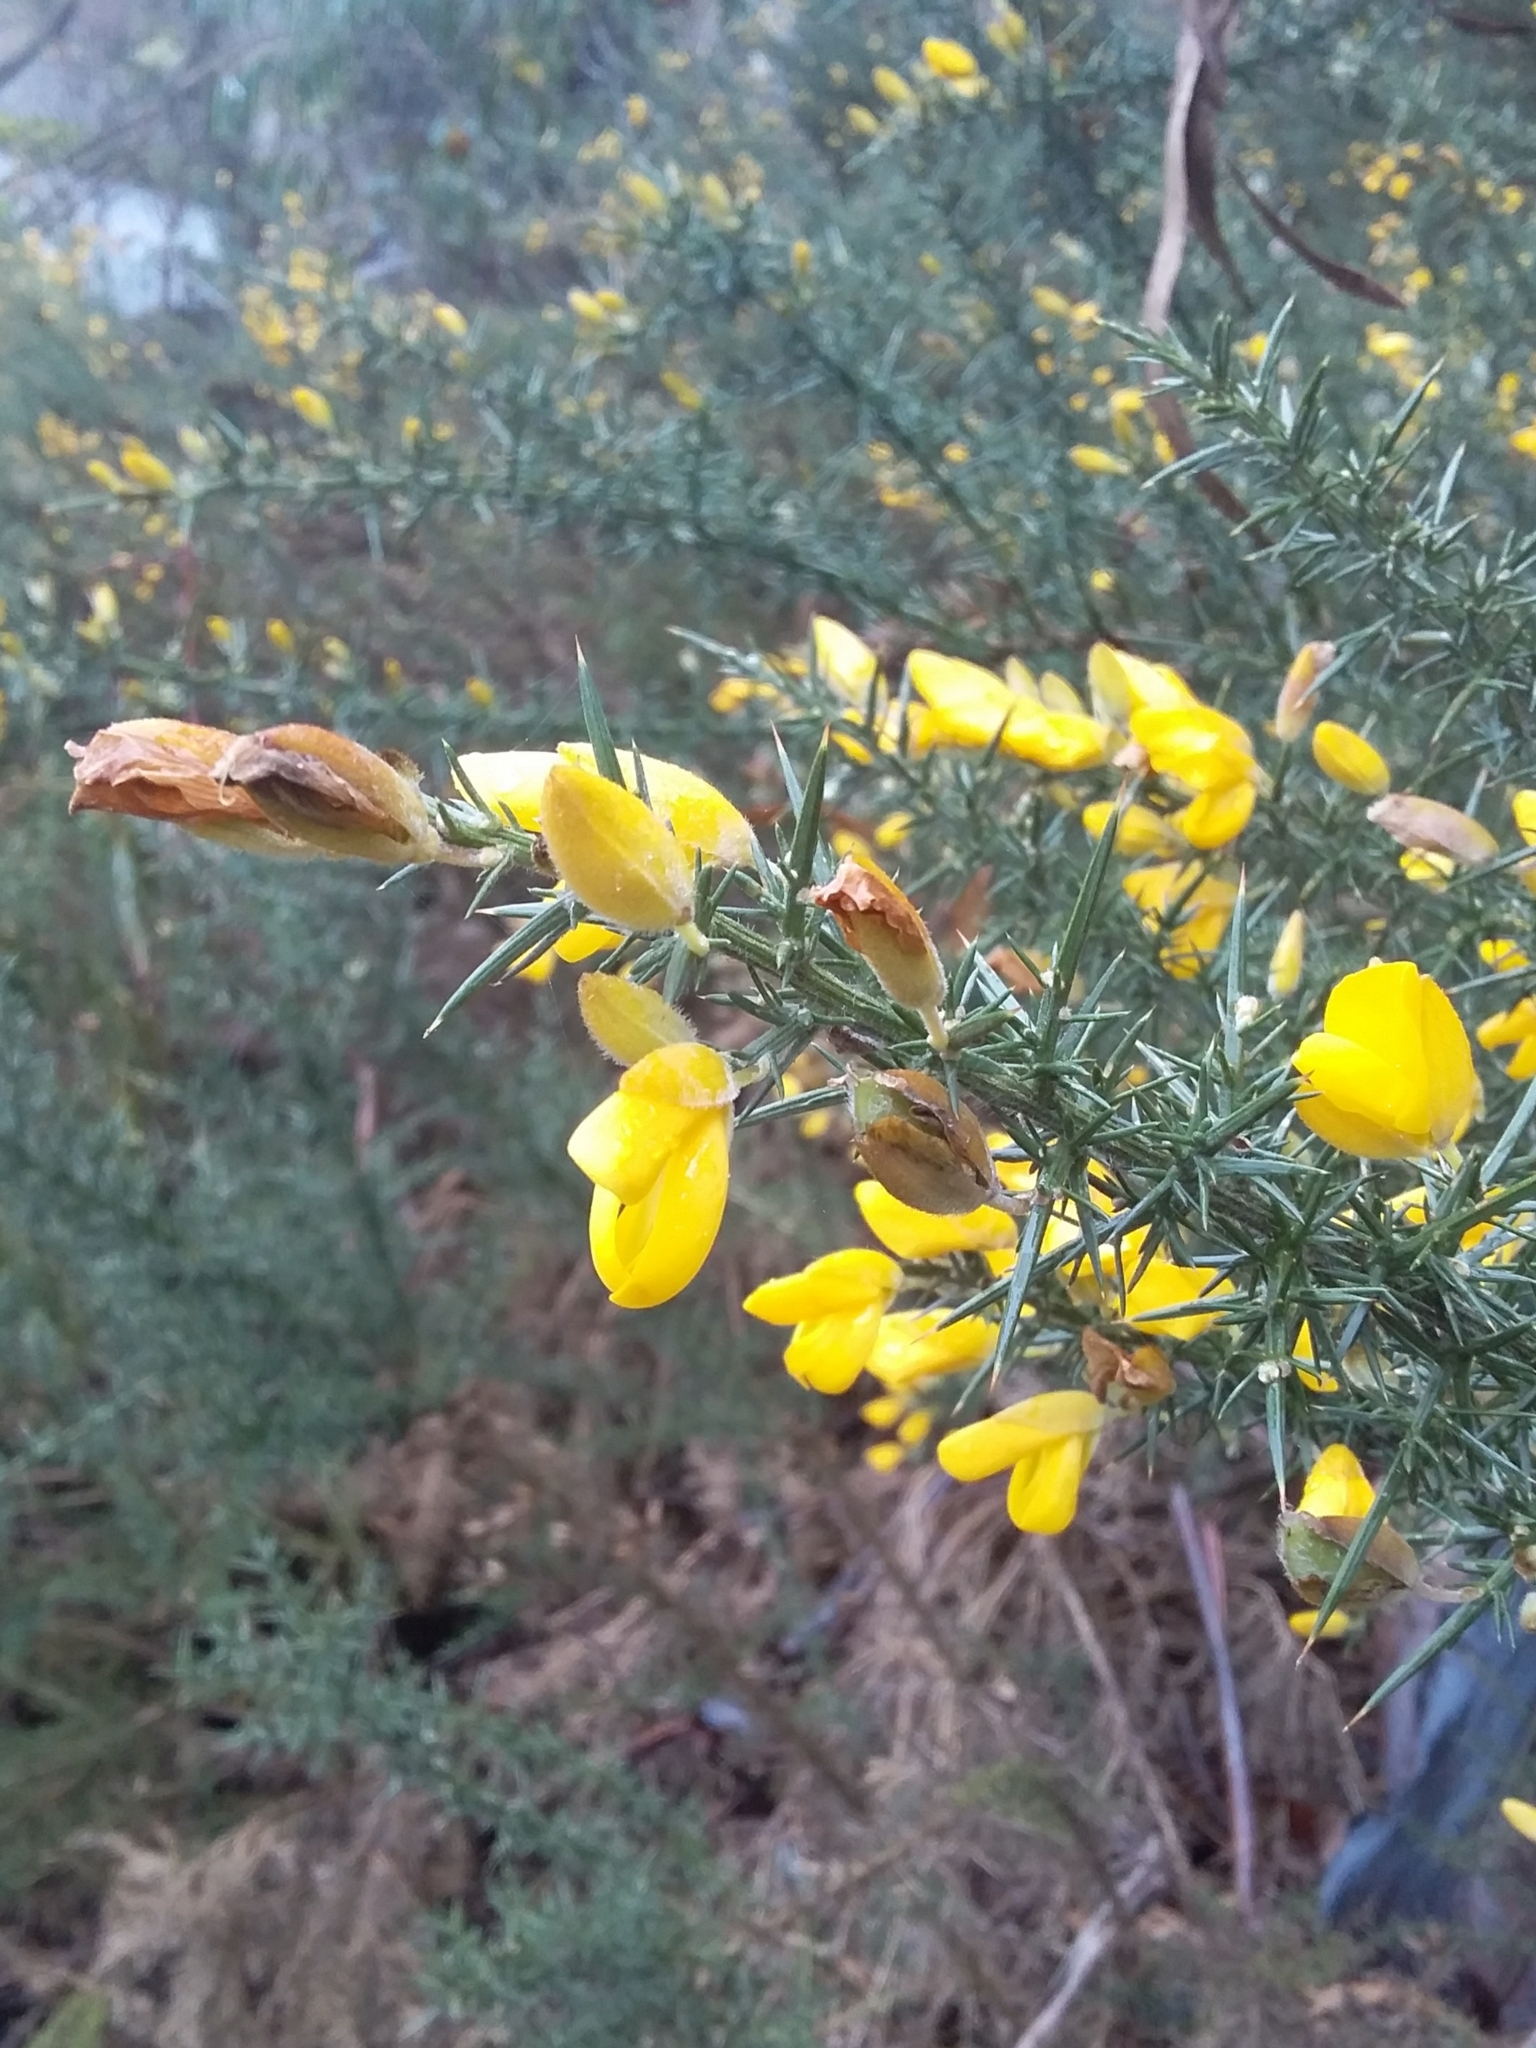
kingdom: Plantae
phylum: Tracheophyta
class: Magnoliopsida
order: Fabales
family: Fabaceae
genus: Ulex
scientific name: Ulex europaeus
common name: Common gorse
